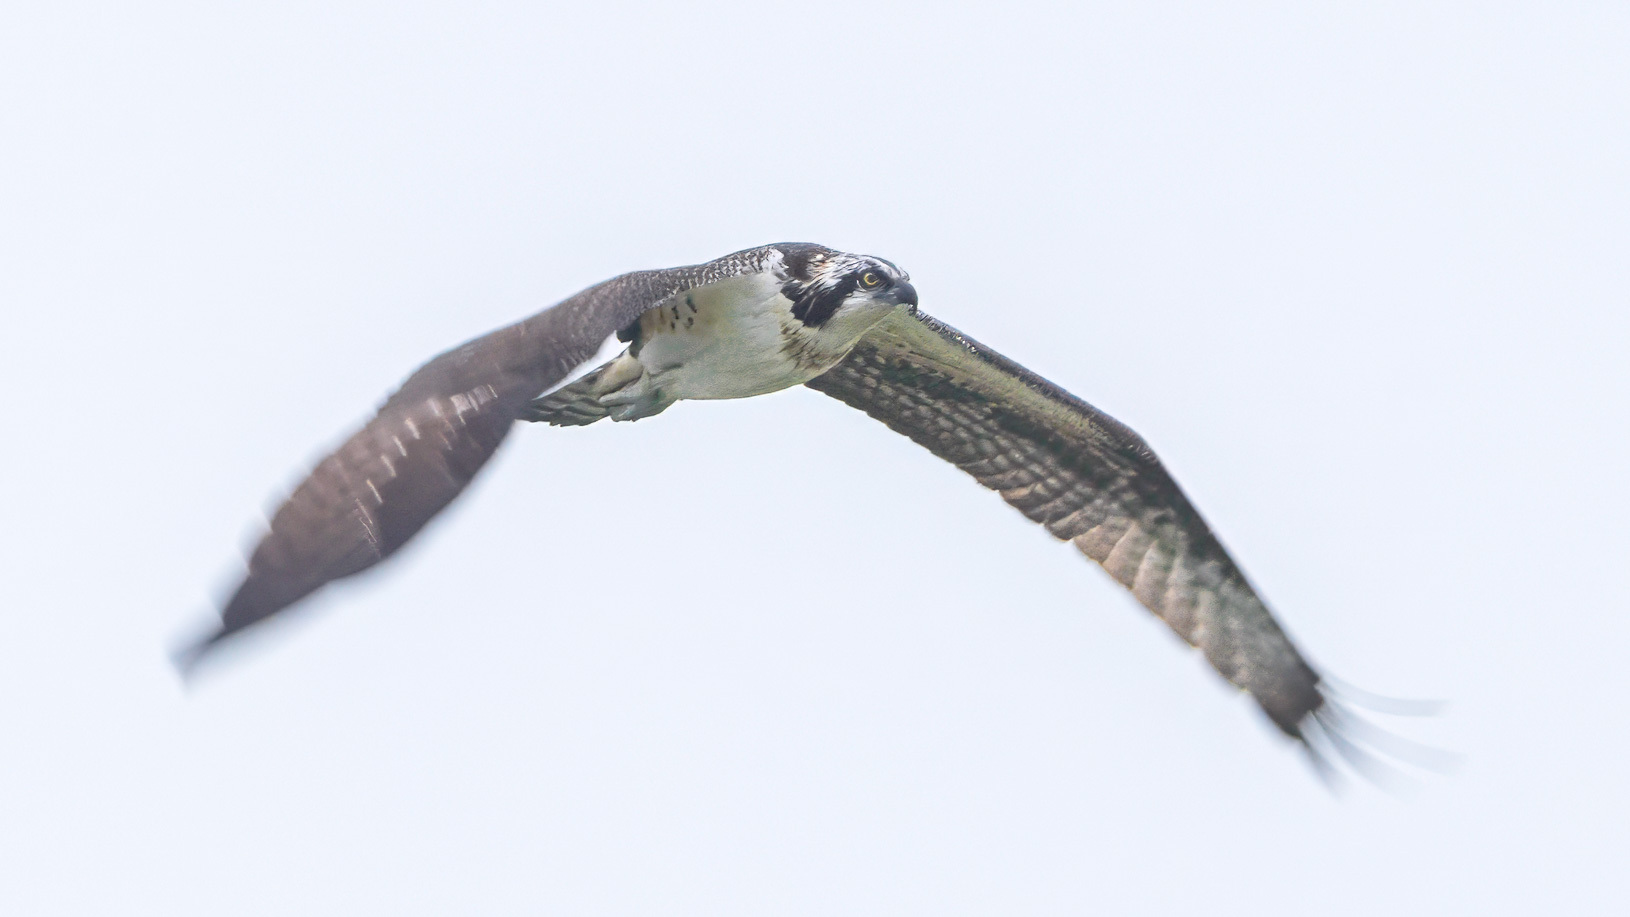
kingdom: Animalia
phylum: Chordata
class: Aves
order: Accipitriformes
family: Pandionidae
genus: Pandion
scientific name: Pandion haliaetus
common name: Osprey
